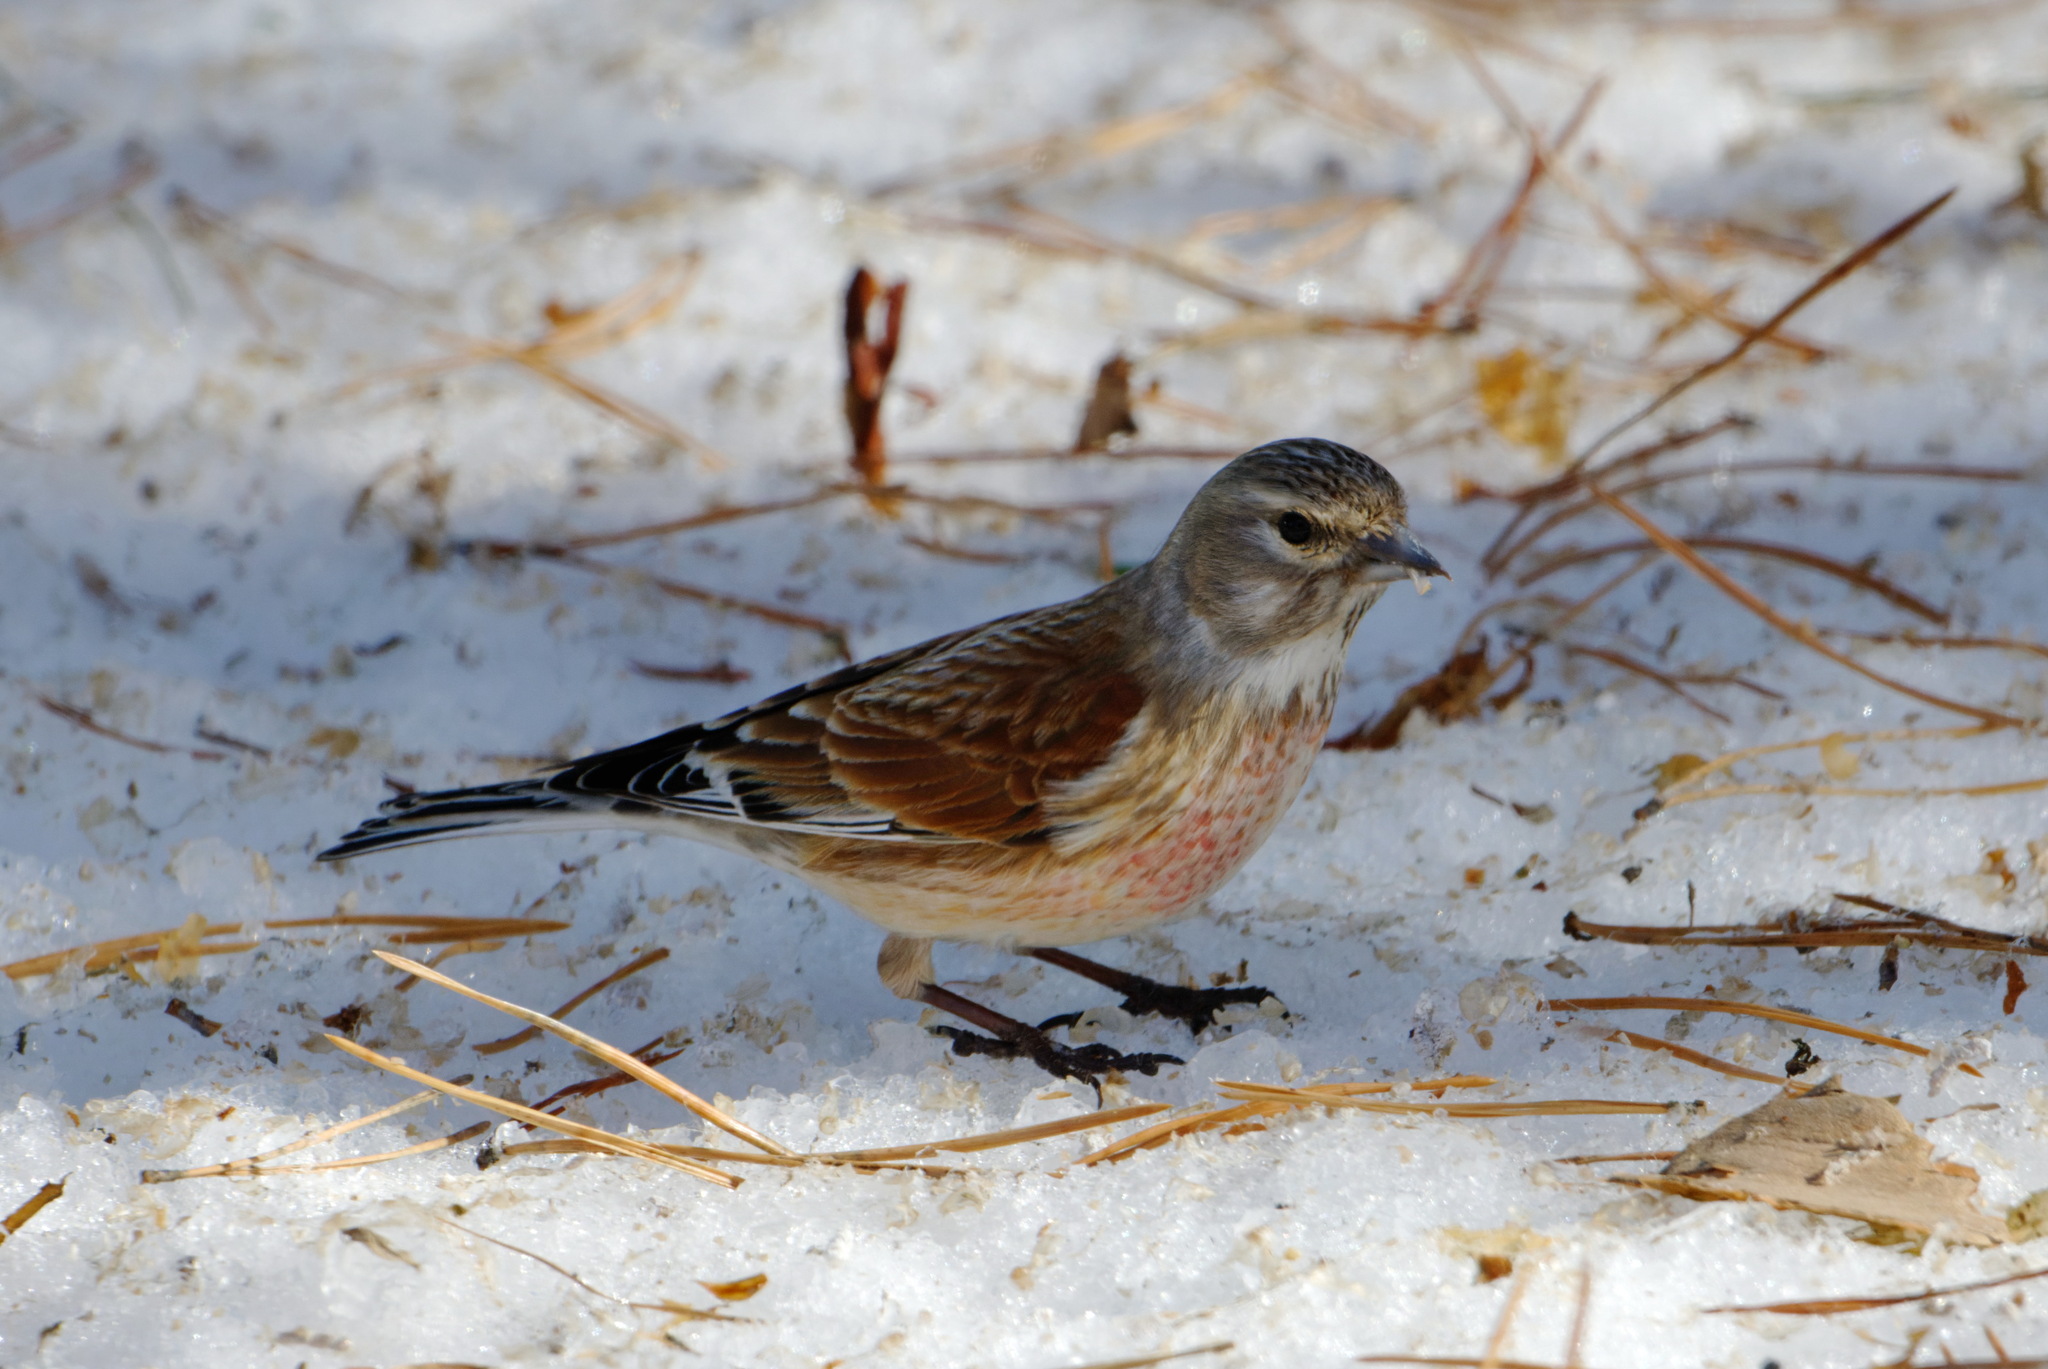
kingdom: Animalia
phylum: Chordata
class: Aves
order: Passeriformes
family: Fringillidae
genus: Linaria
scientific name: Linaria cannabina
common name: Common linnet
